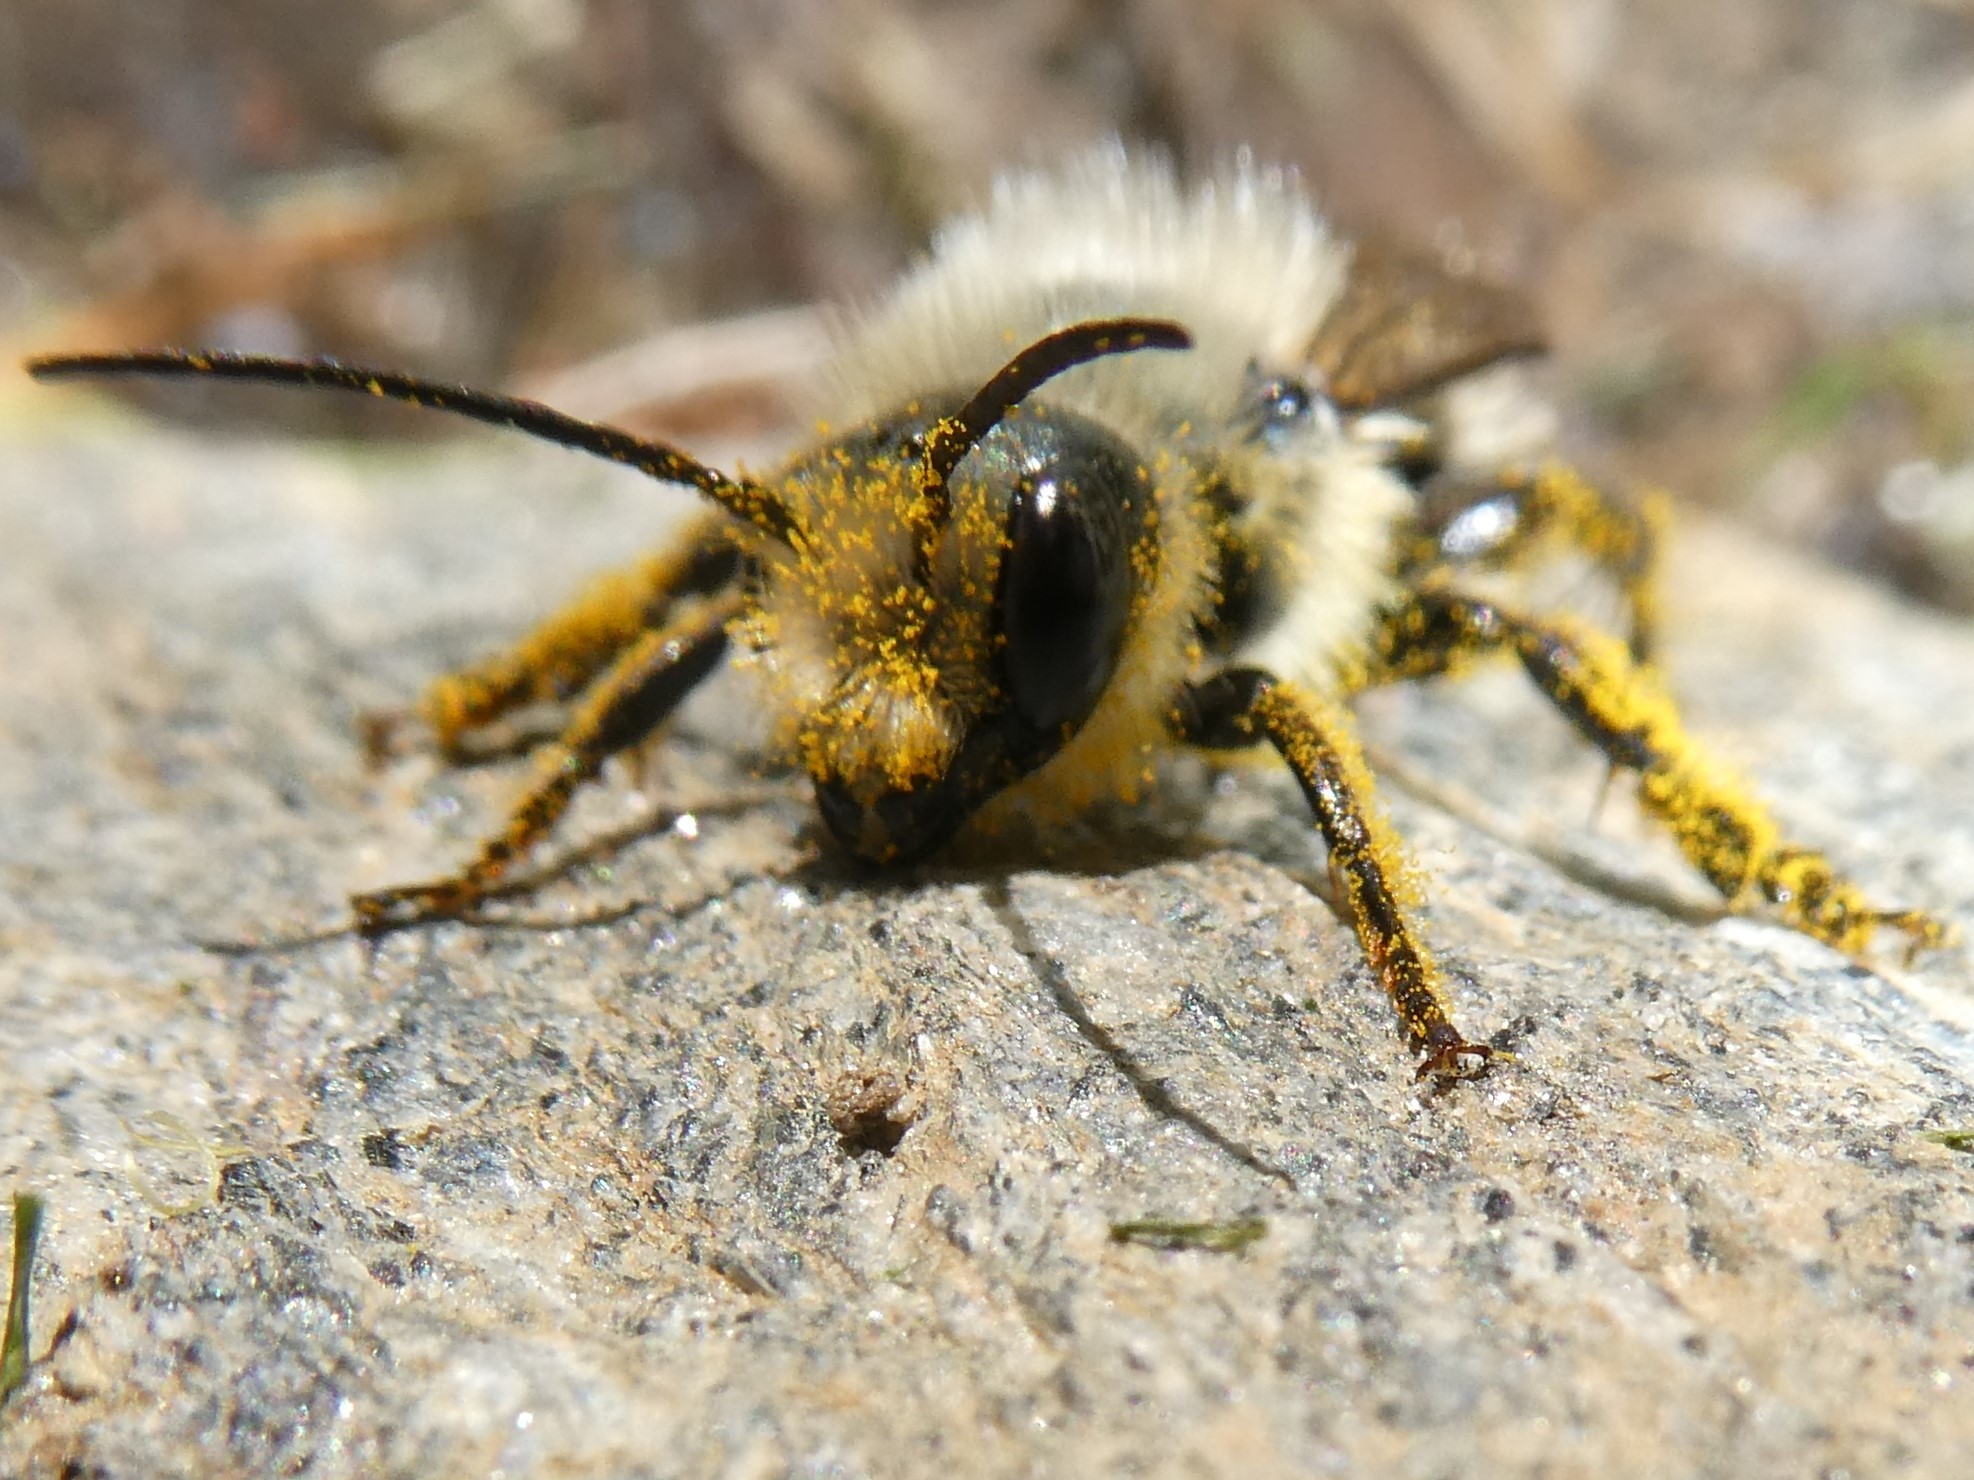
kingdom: Animalia
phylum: Arthropoda
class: Insecta
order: Hymenoptera
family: Megachilidae
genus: Osmia
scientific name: Osmia bucephala
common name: Bufflehead mason bee
